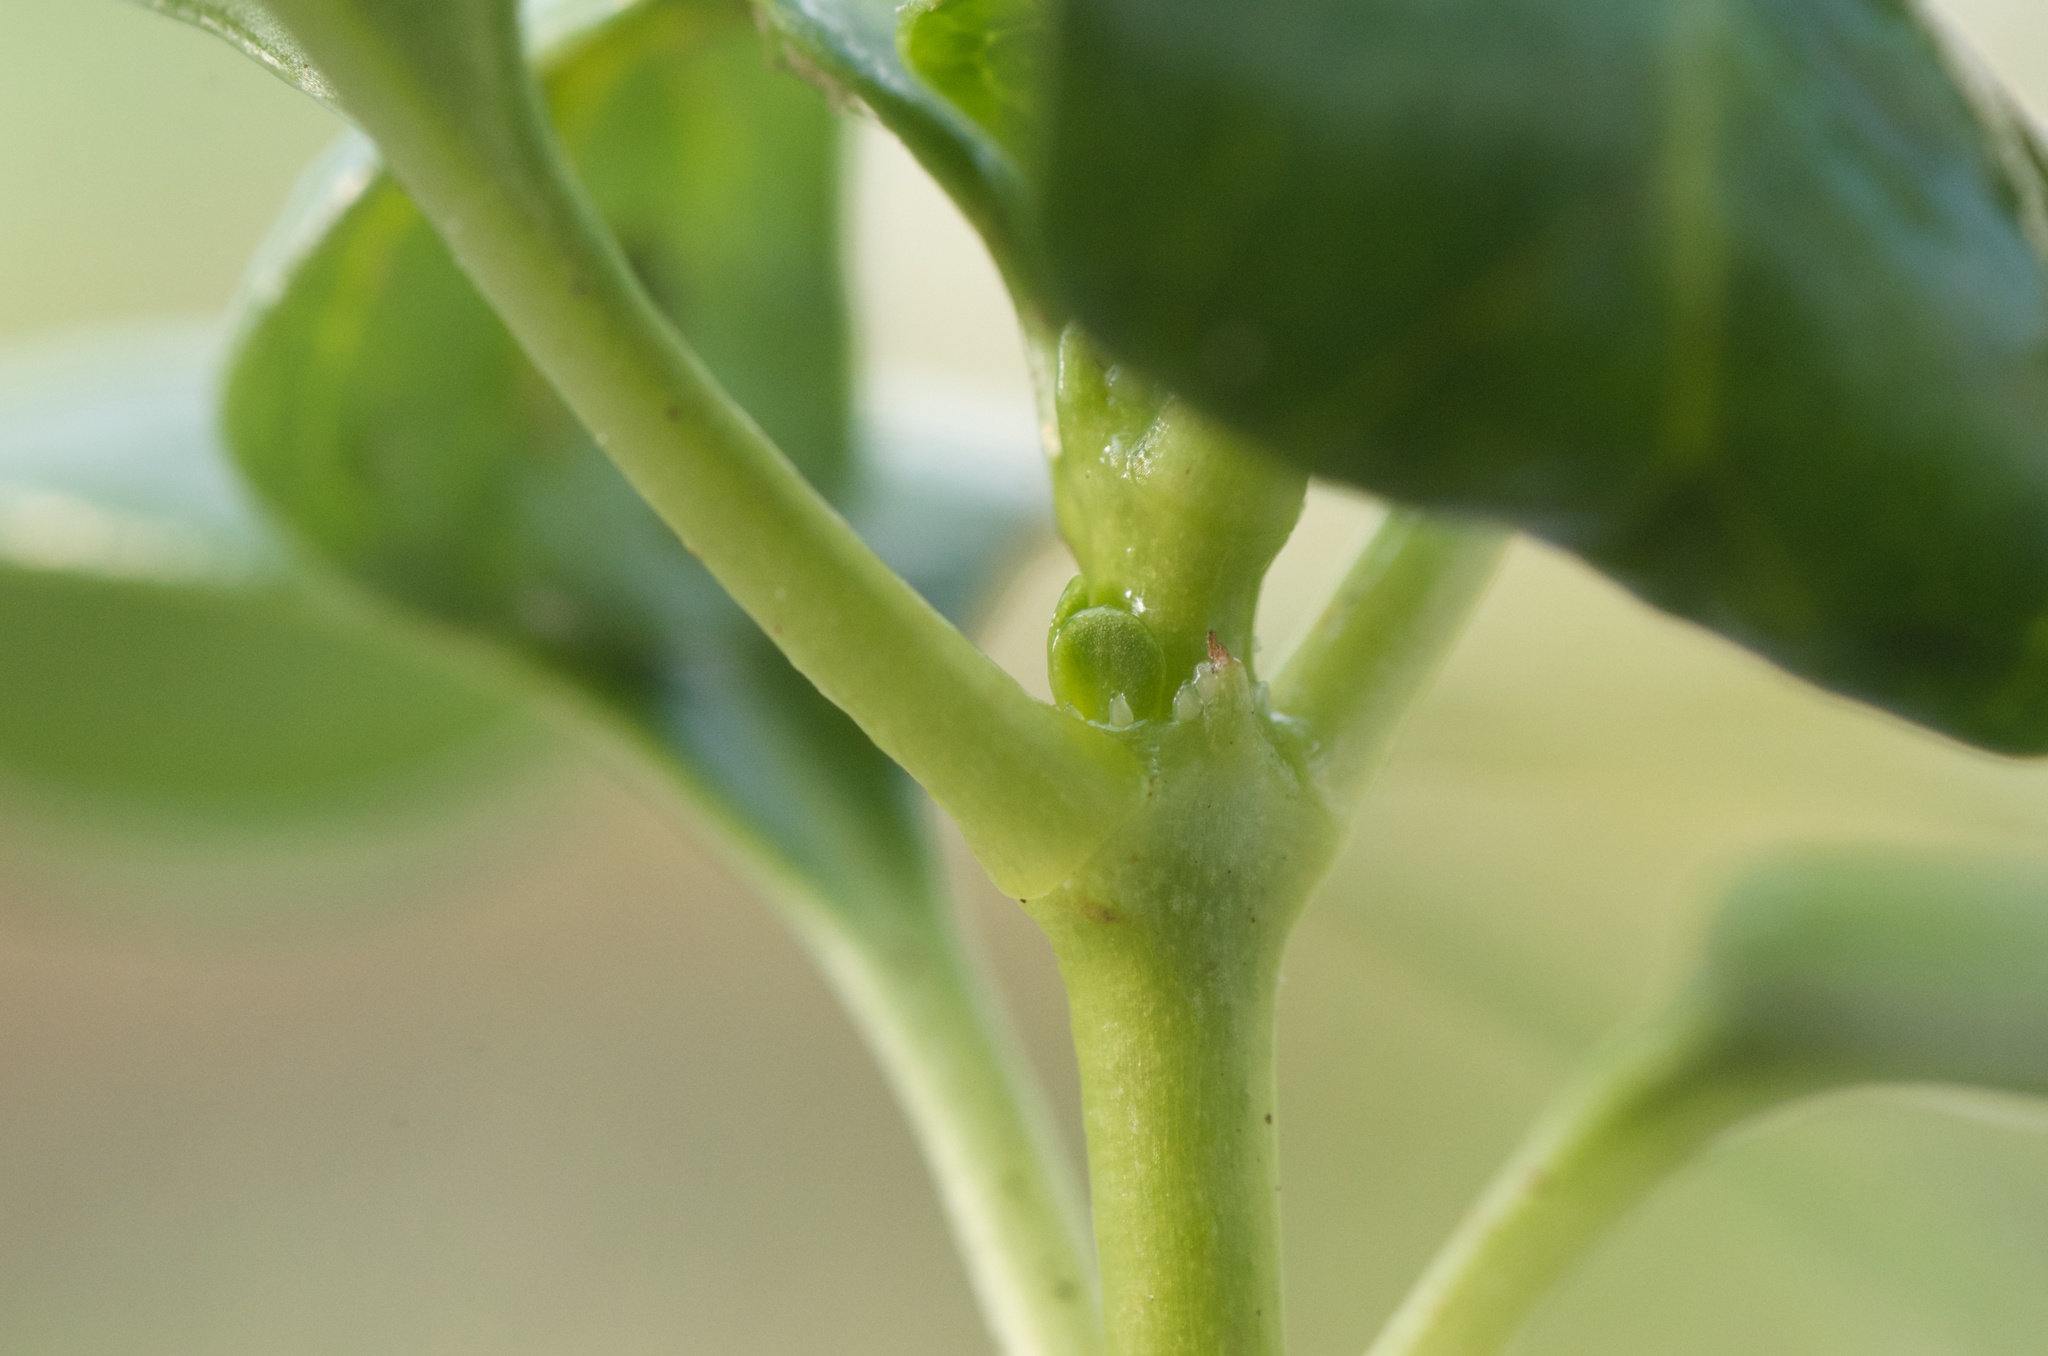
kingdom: Plantae
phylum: Tracheophyta
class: Magnoliopsida
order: Gentianales
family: Rubiaceae
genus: Coprosma
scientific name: Coprosma repens
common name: Tree bedstraw
